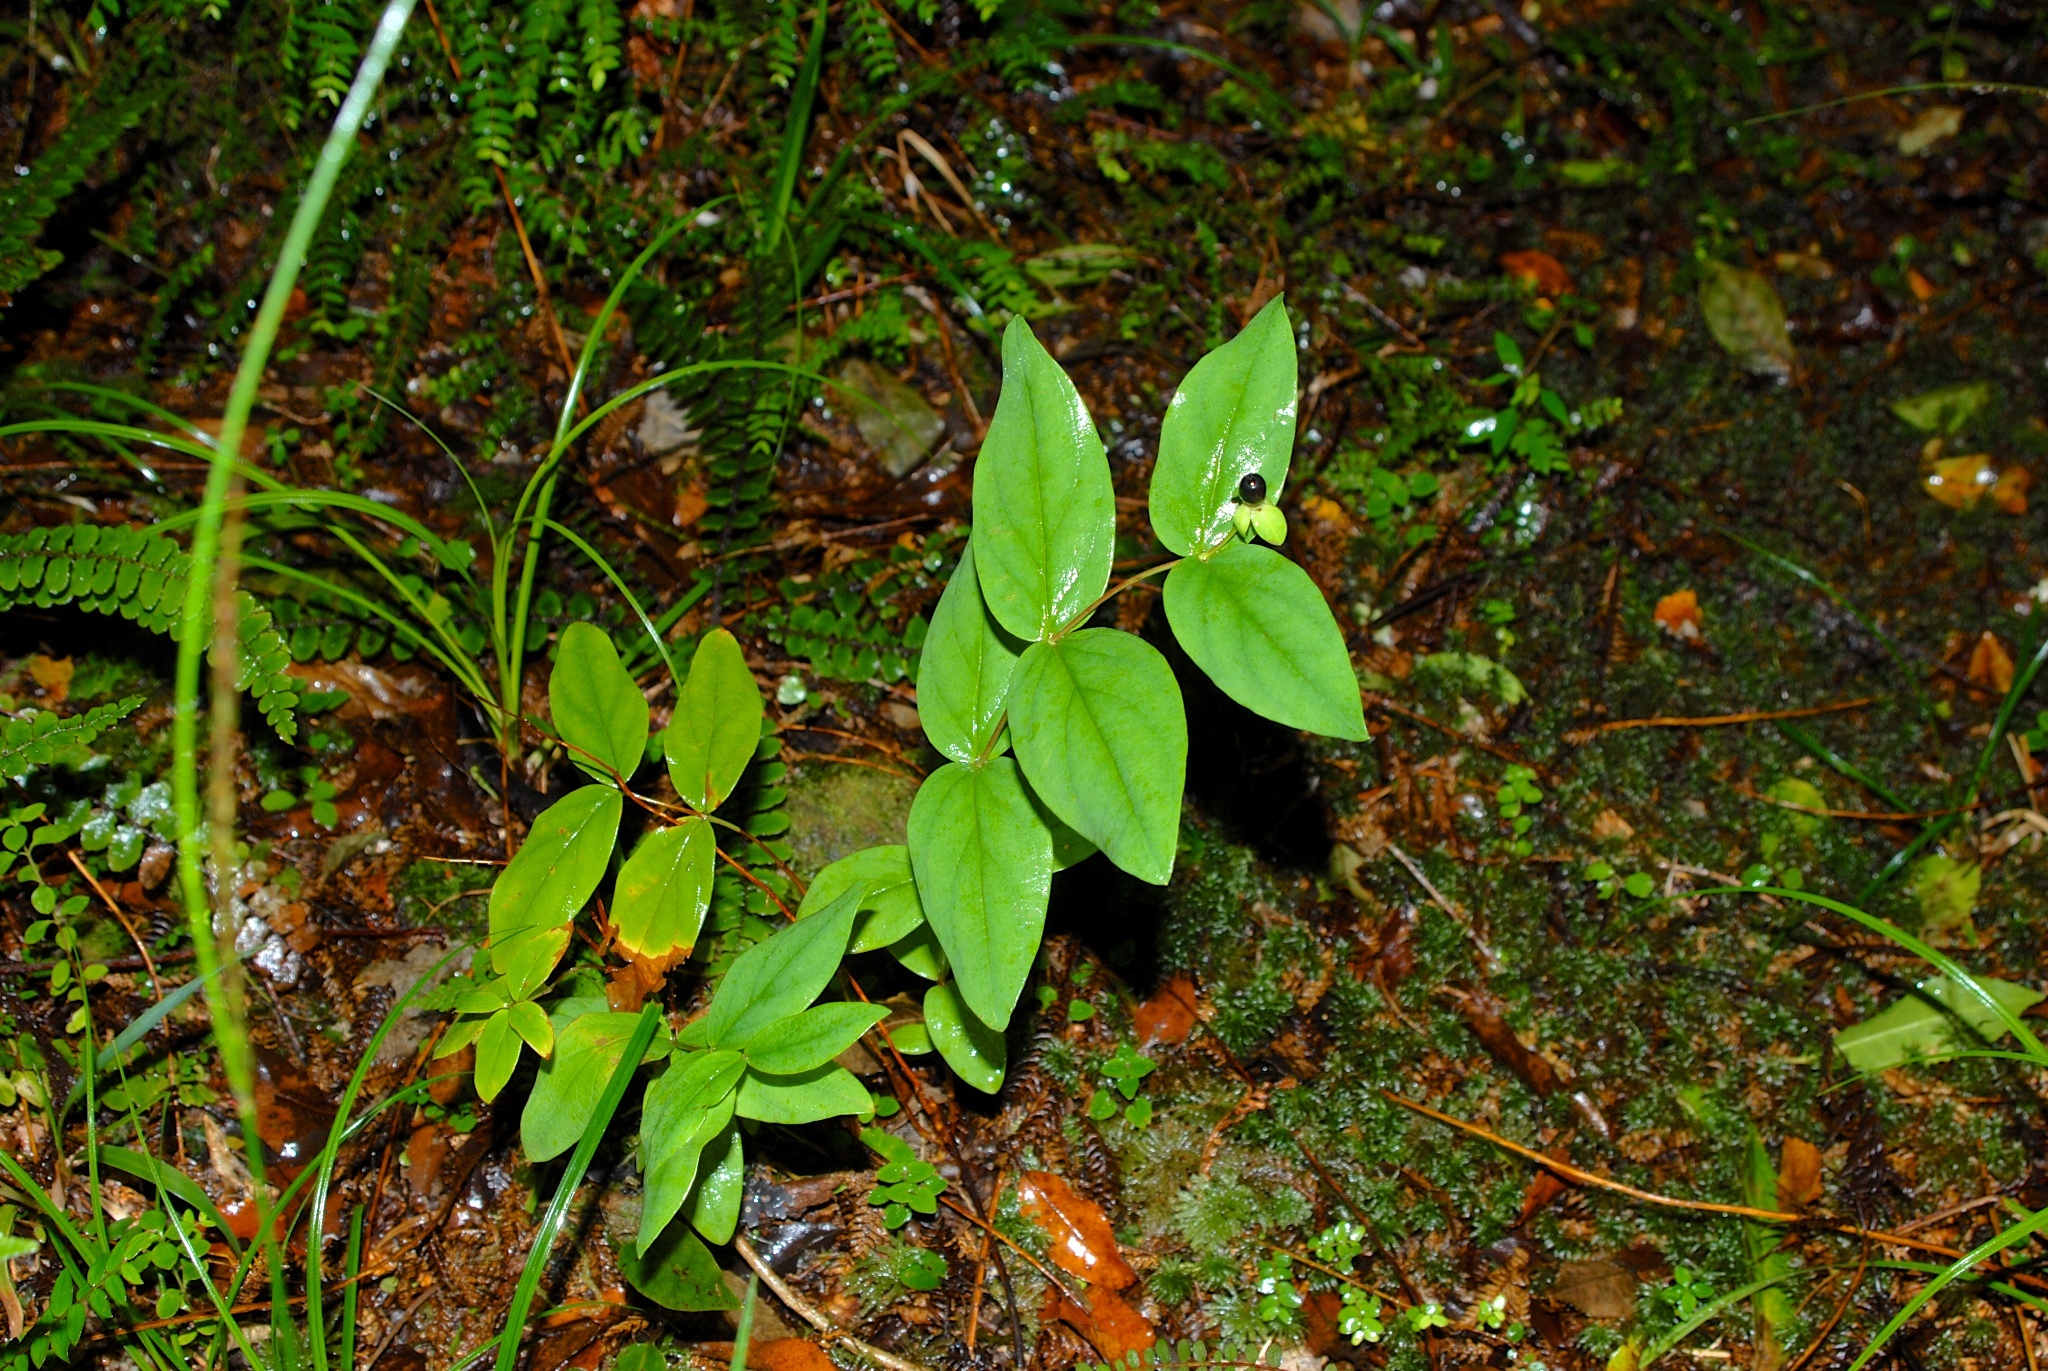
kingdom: Plantae
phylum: Tracheophyta
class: Magnoliopsida
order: Malpighiales
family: Hypericaceae
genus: Hypericum
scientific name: Hypericum androsaemum
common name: Sweet-amber
